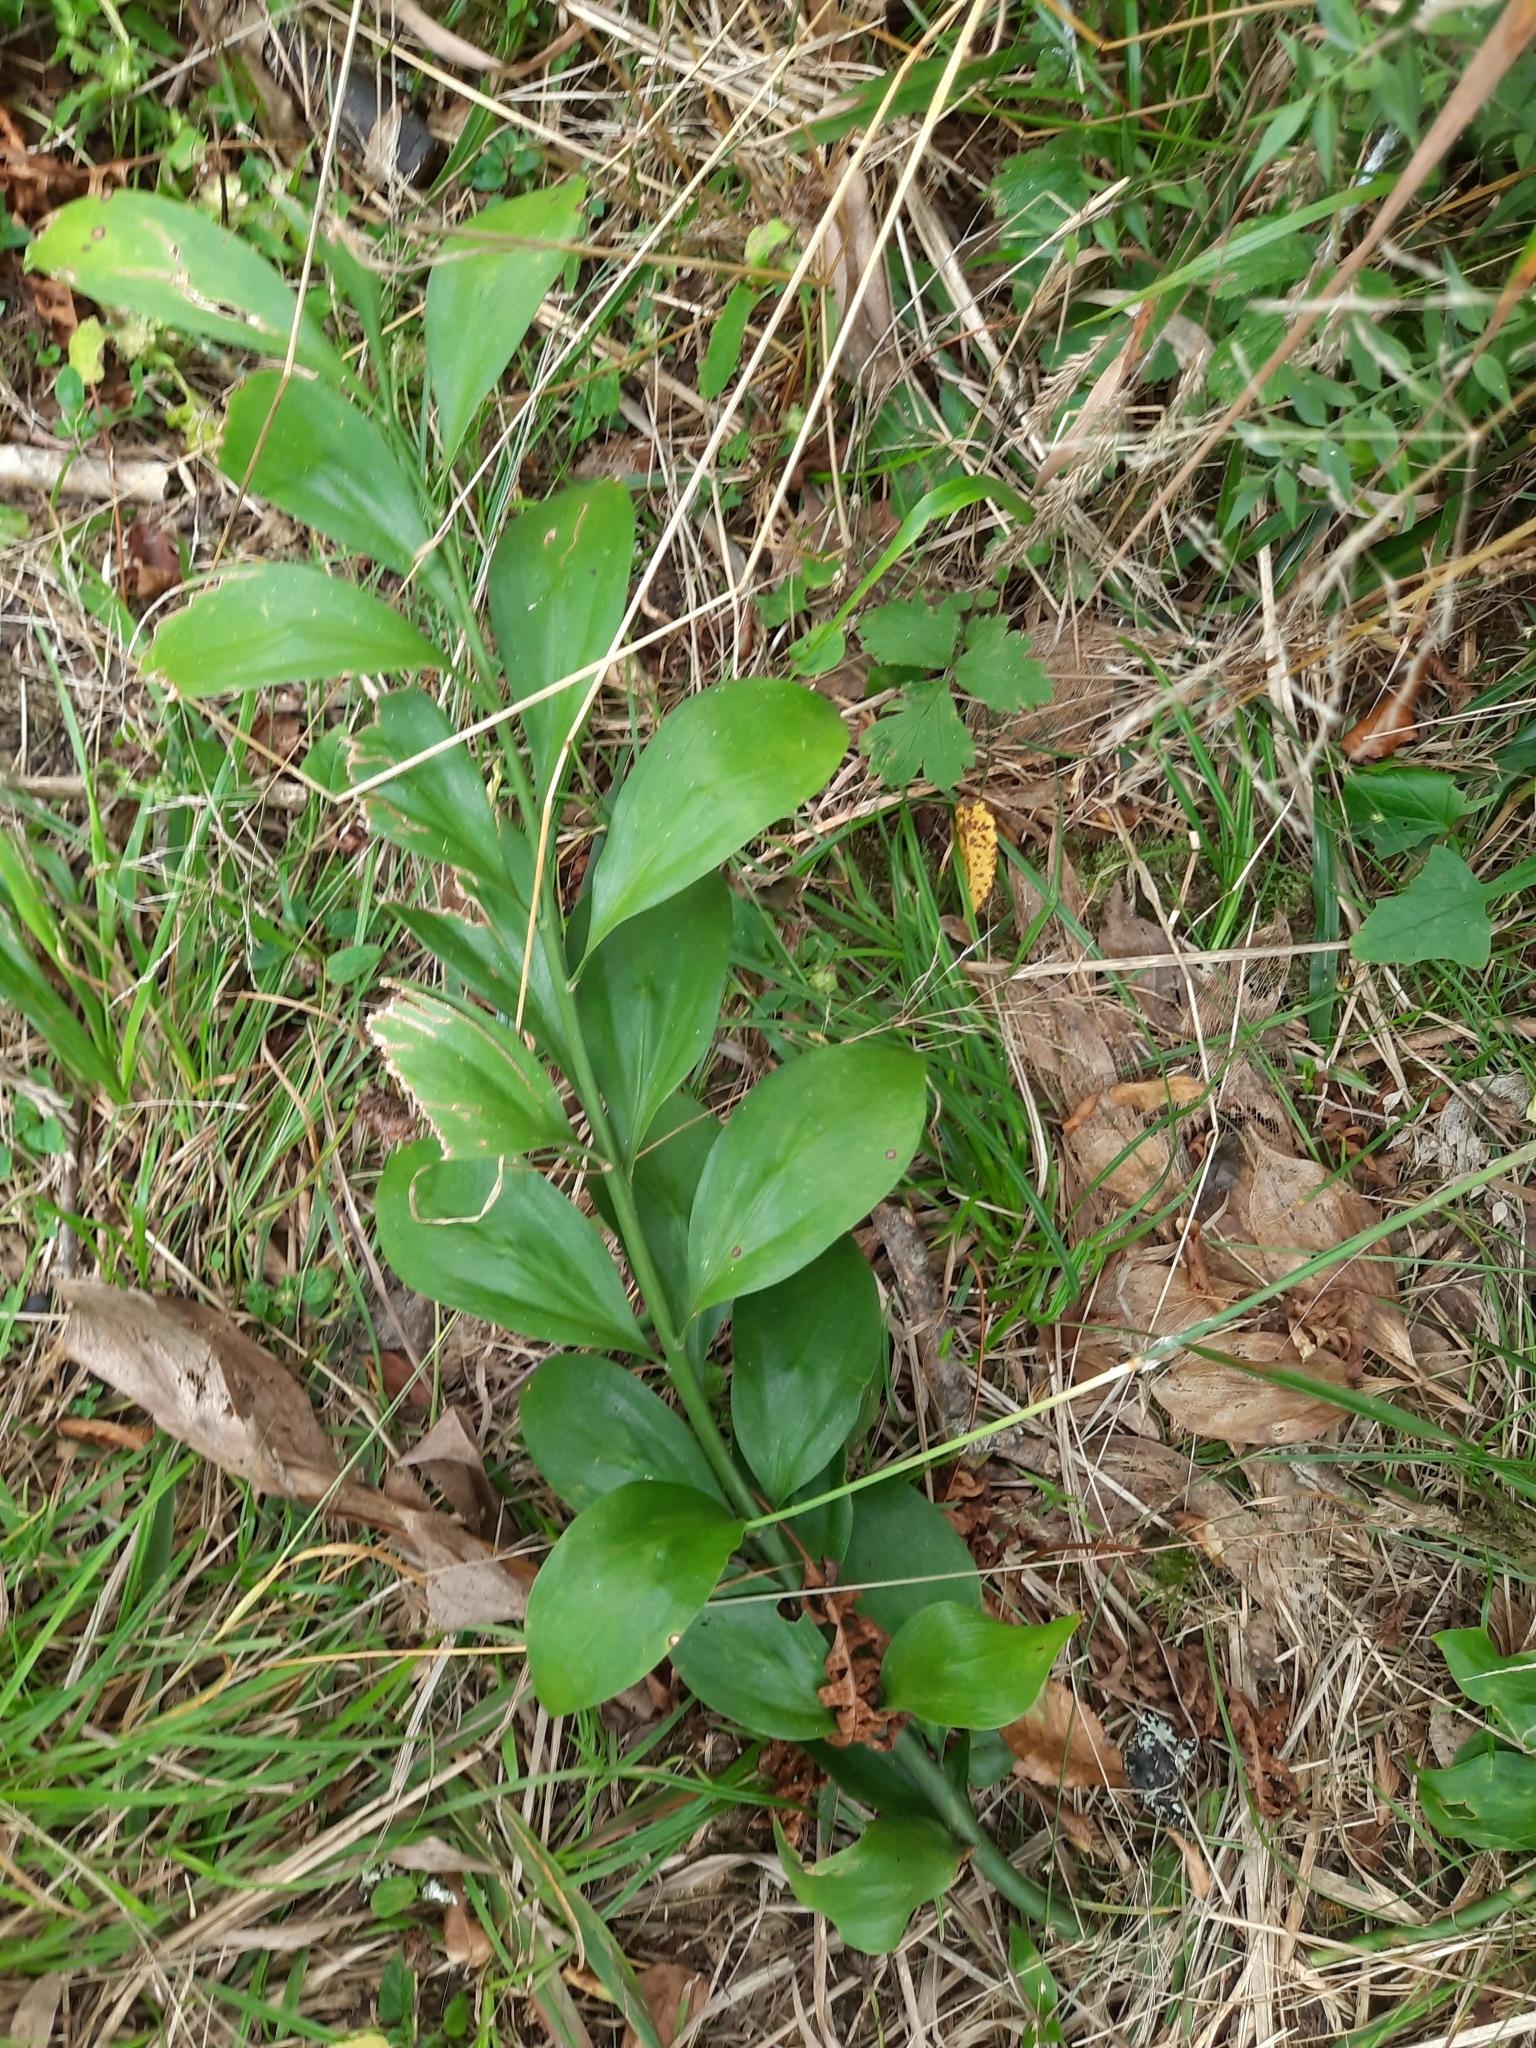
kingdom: Plantae
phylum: Tracheophyta
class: Liliopsida
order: Asparagales
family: Asparagaceae
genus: Ruscus
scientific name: Ruscus colchicus
